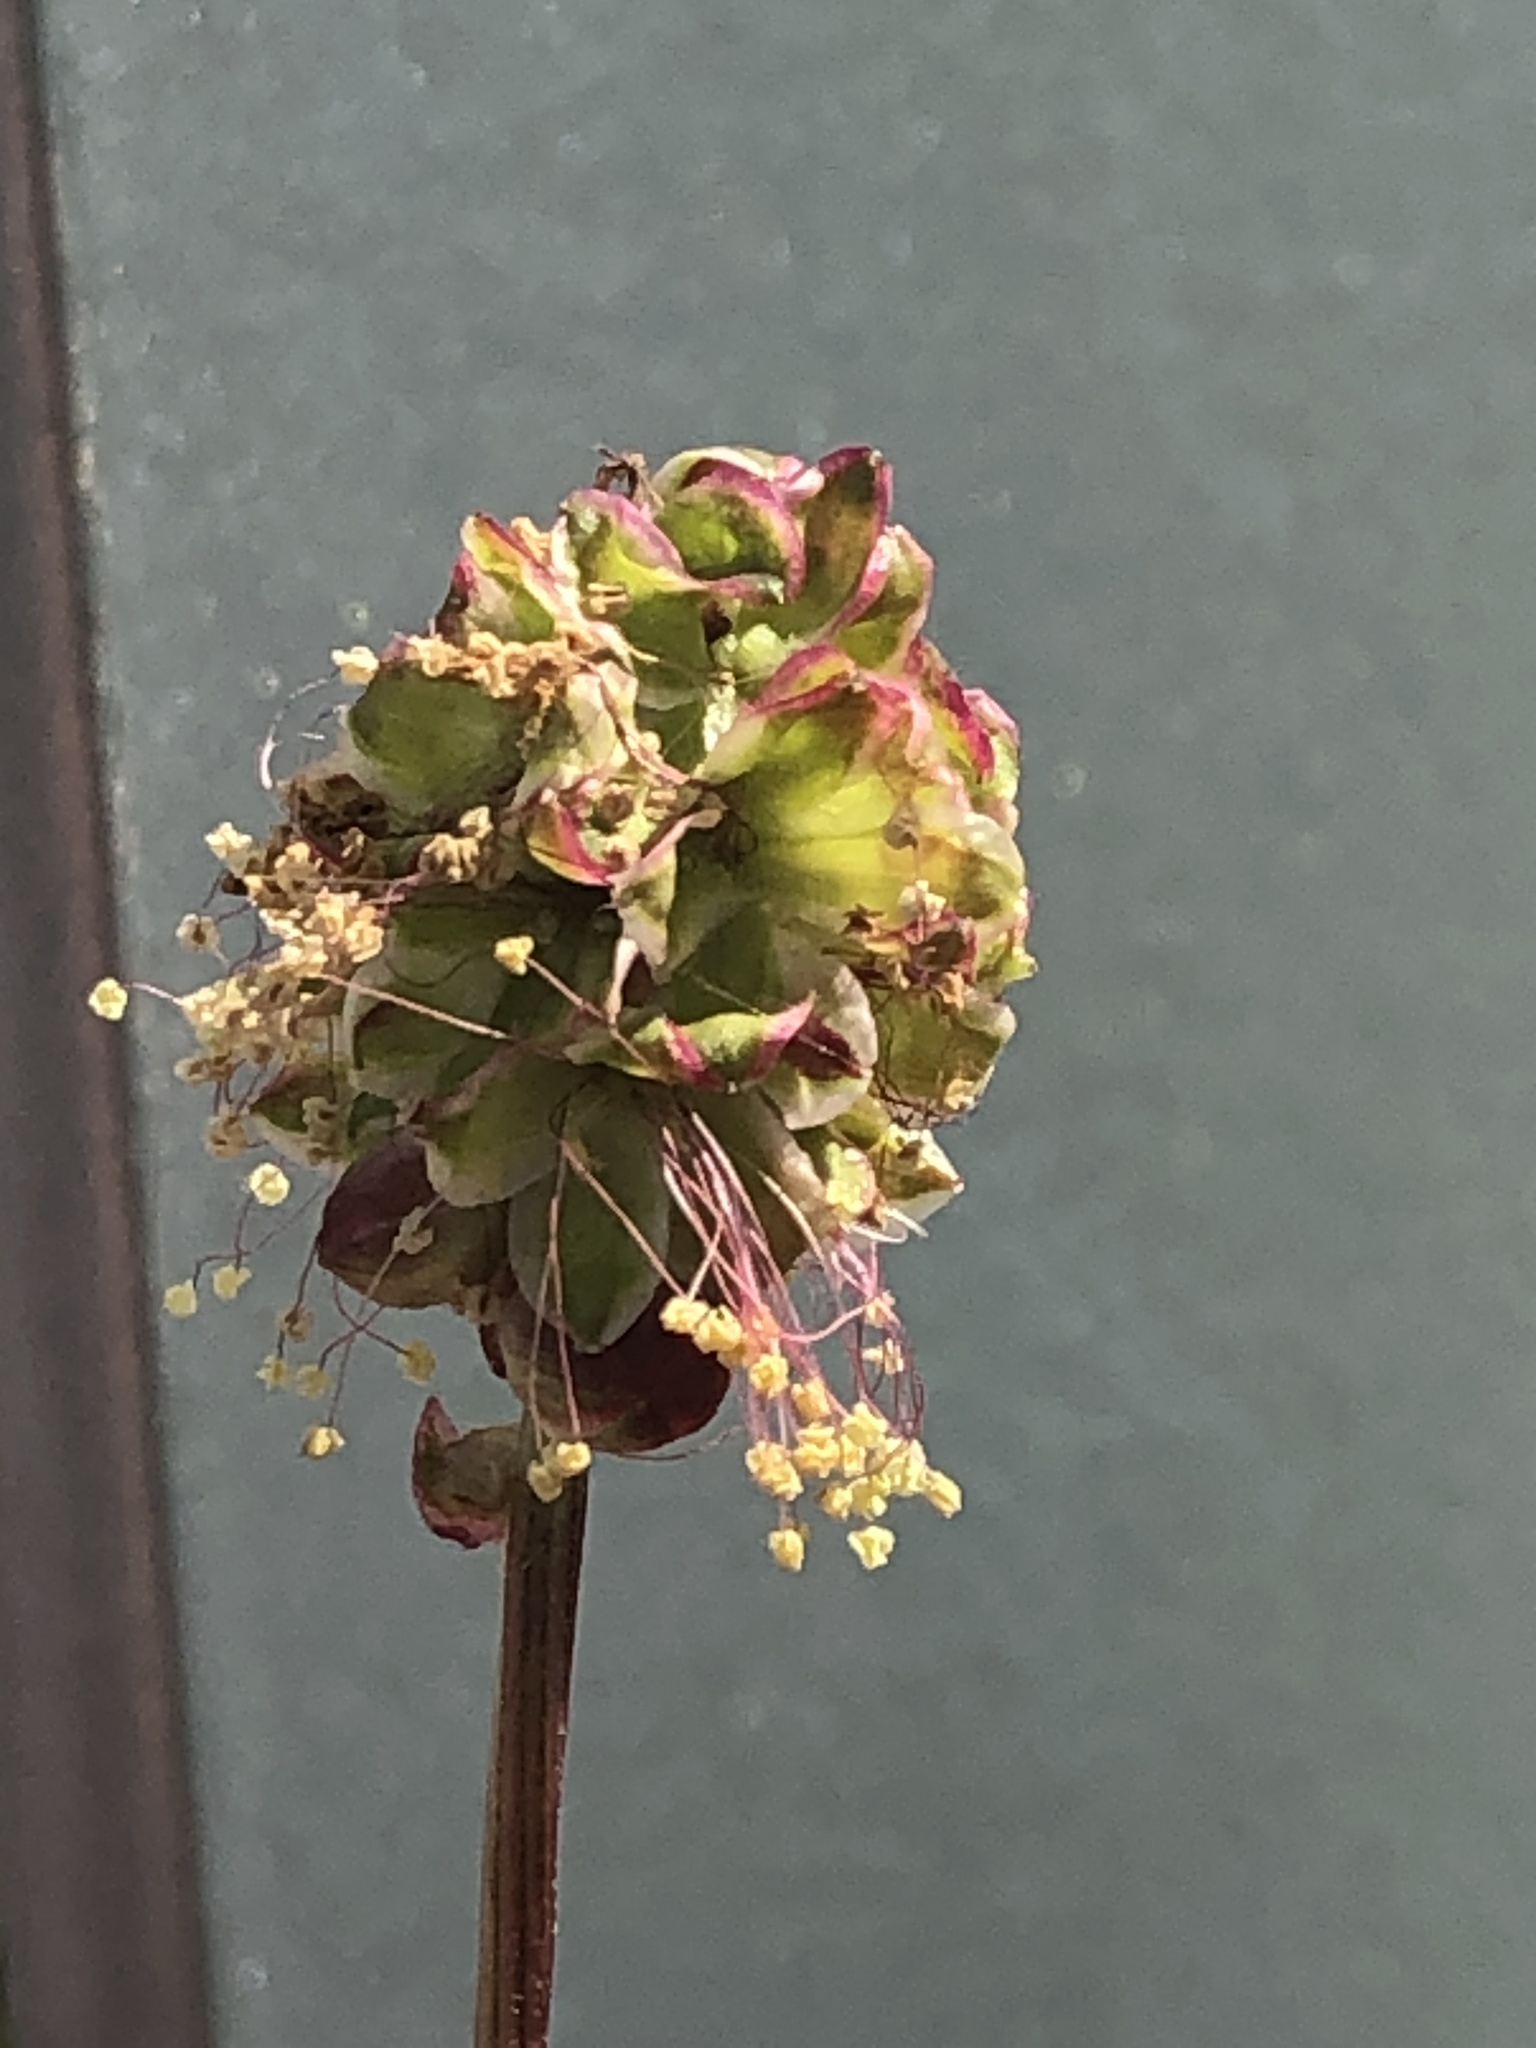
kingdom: Plantae
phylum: Tracheophyta
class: Magnoliopsida
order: Rosales
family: Rosaceae
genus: Poterium
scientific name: Poterium sanguisorba
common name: Salad burnet
